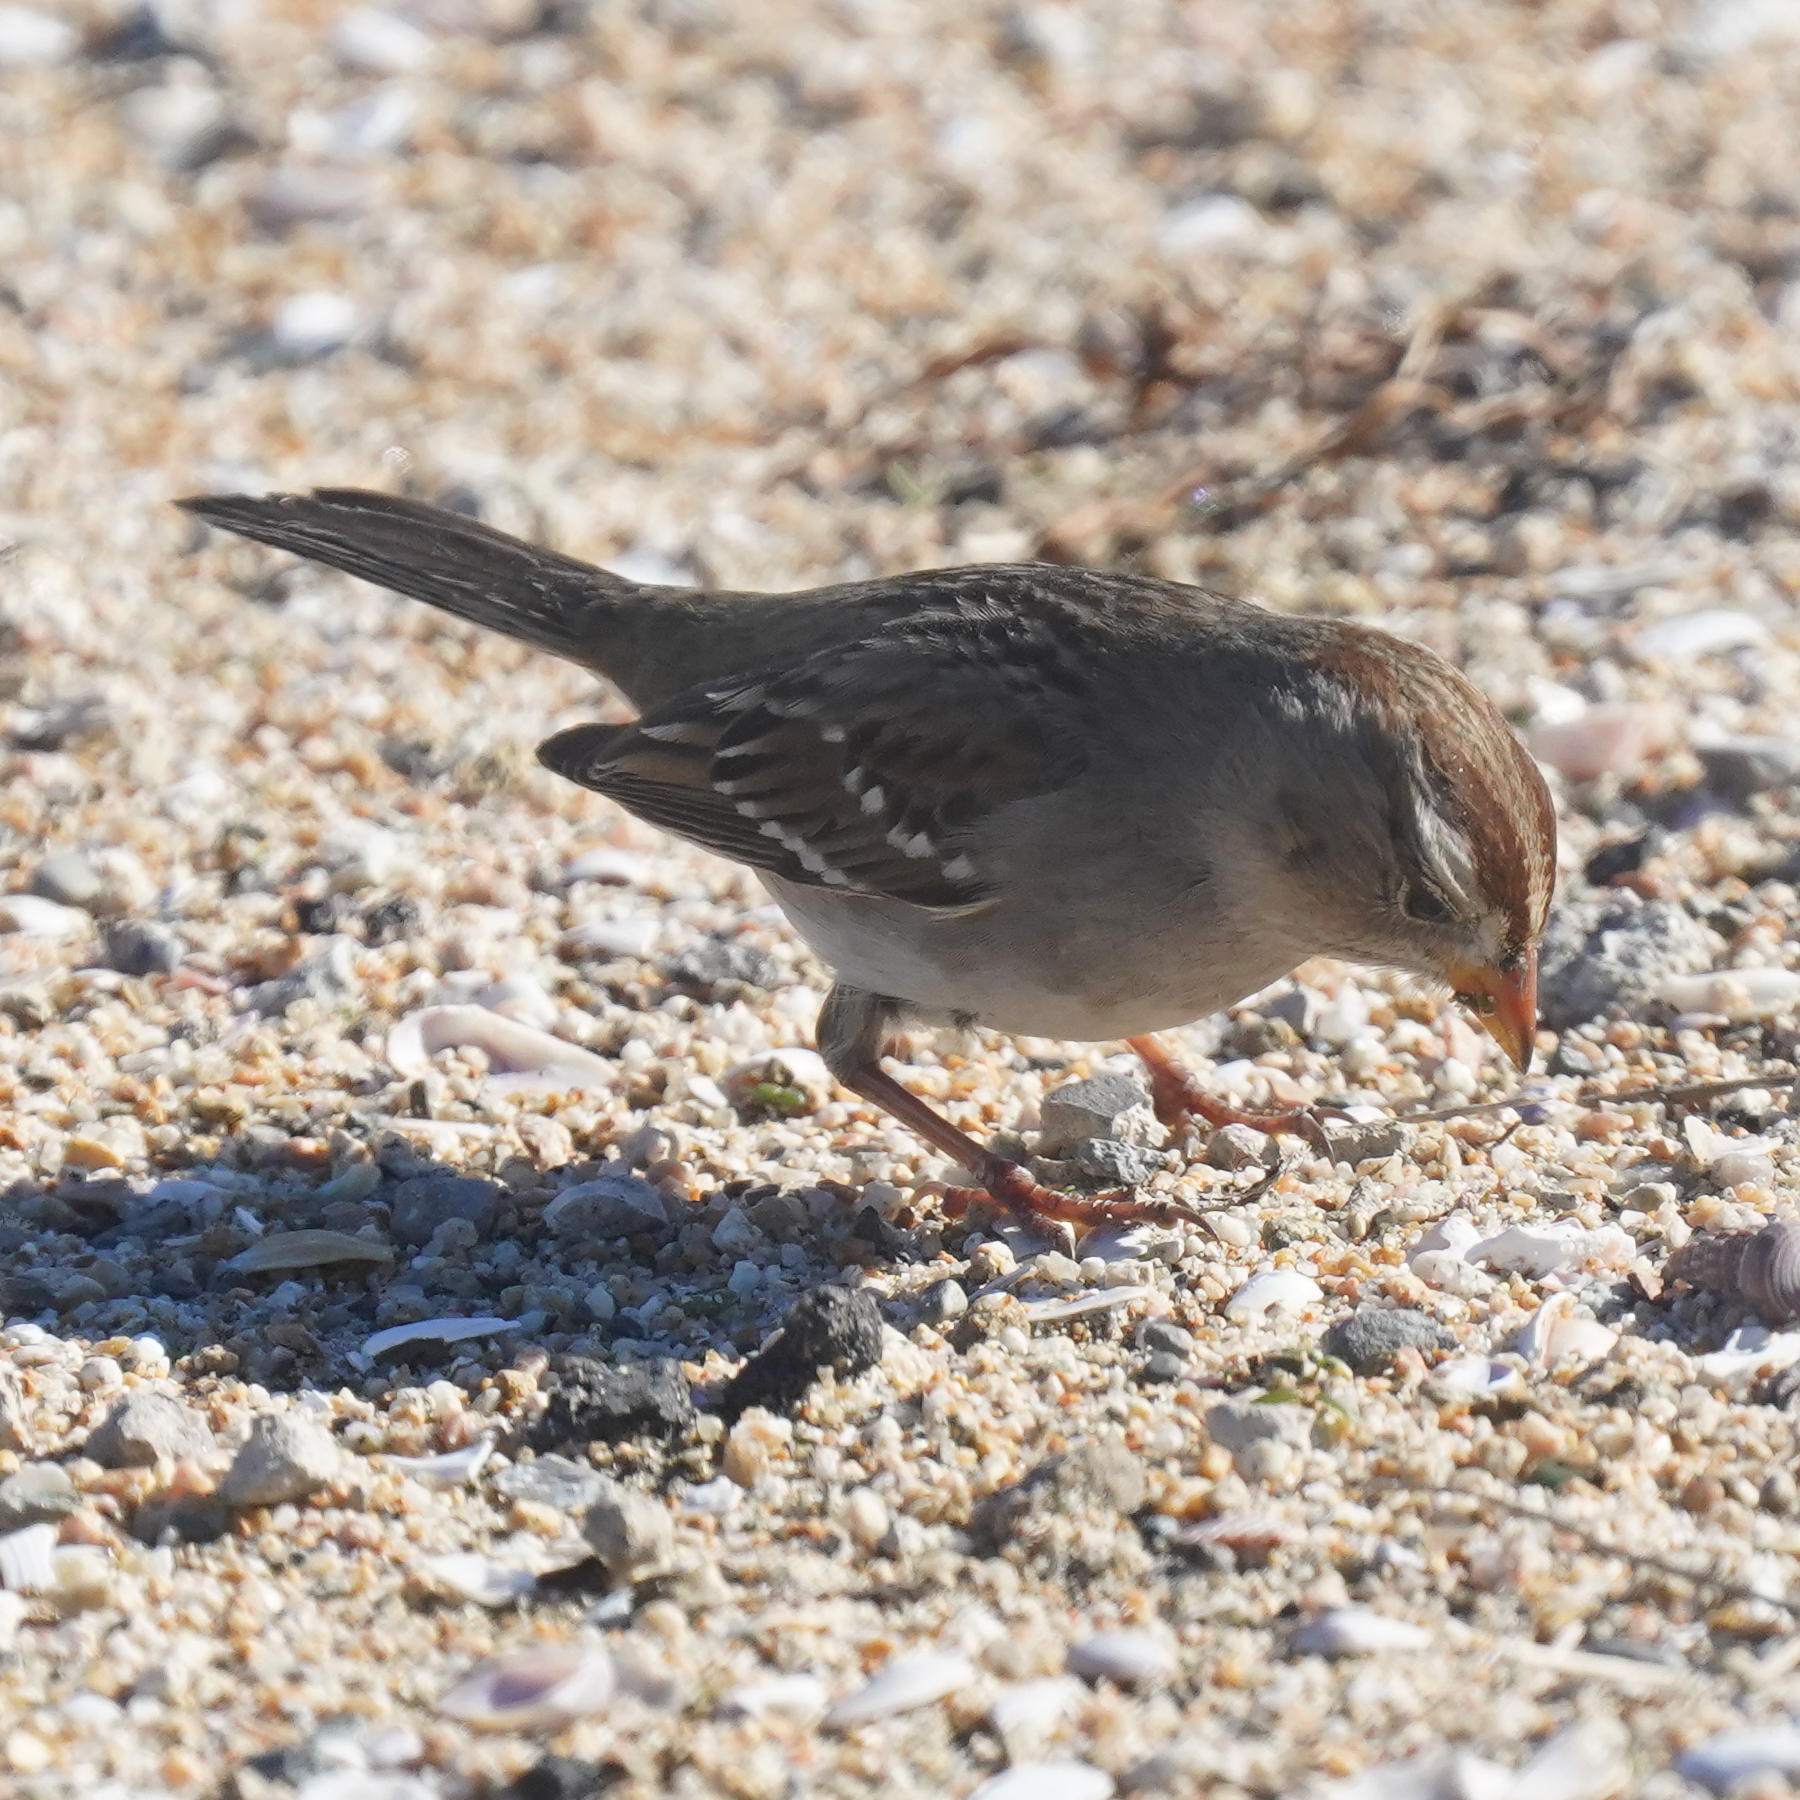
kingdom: Animalia
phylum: Chordata
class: Aves
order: Passeriformes
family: Passerellidae
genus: Zonotrichia
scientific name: Zonotrichia leucophrys
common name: White-crowned sparrow
